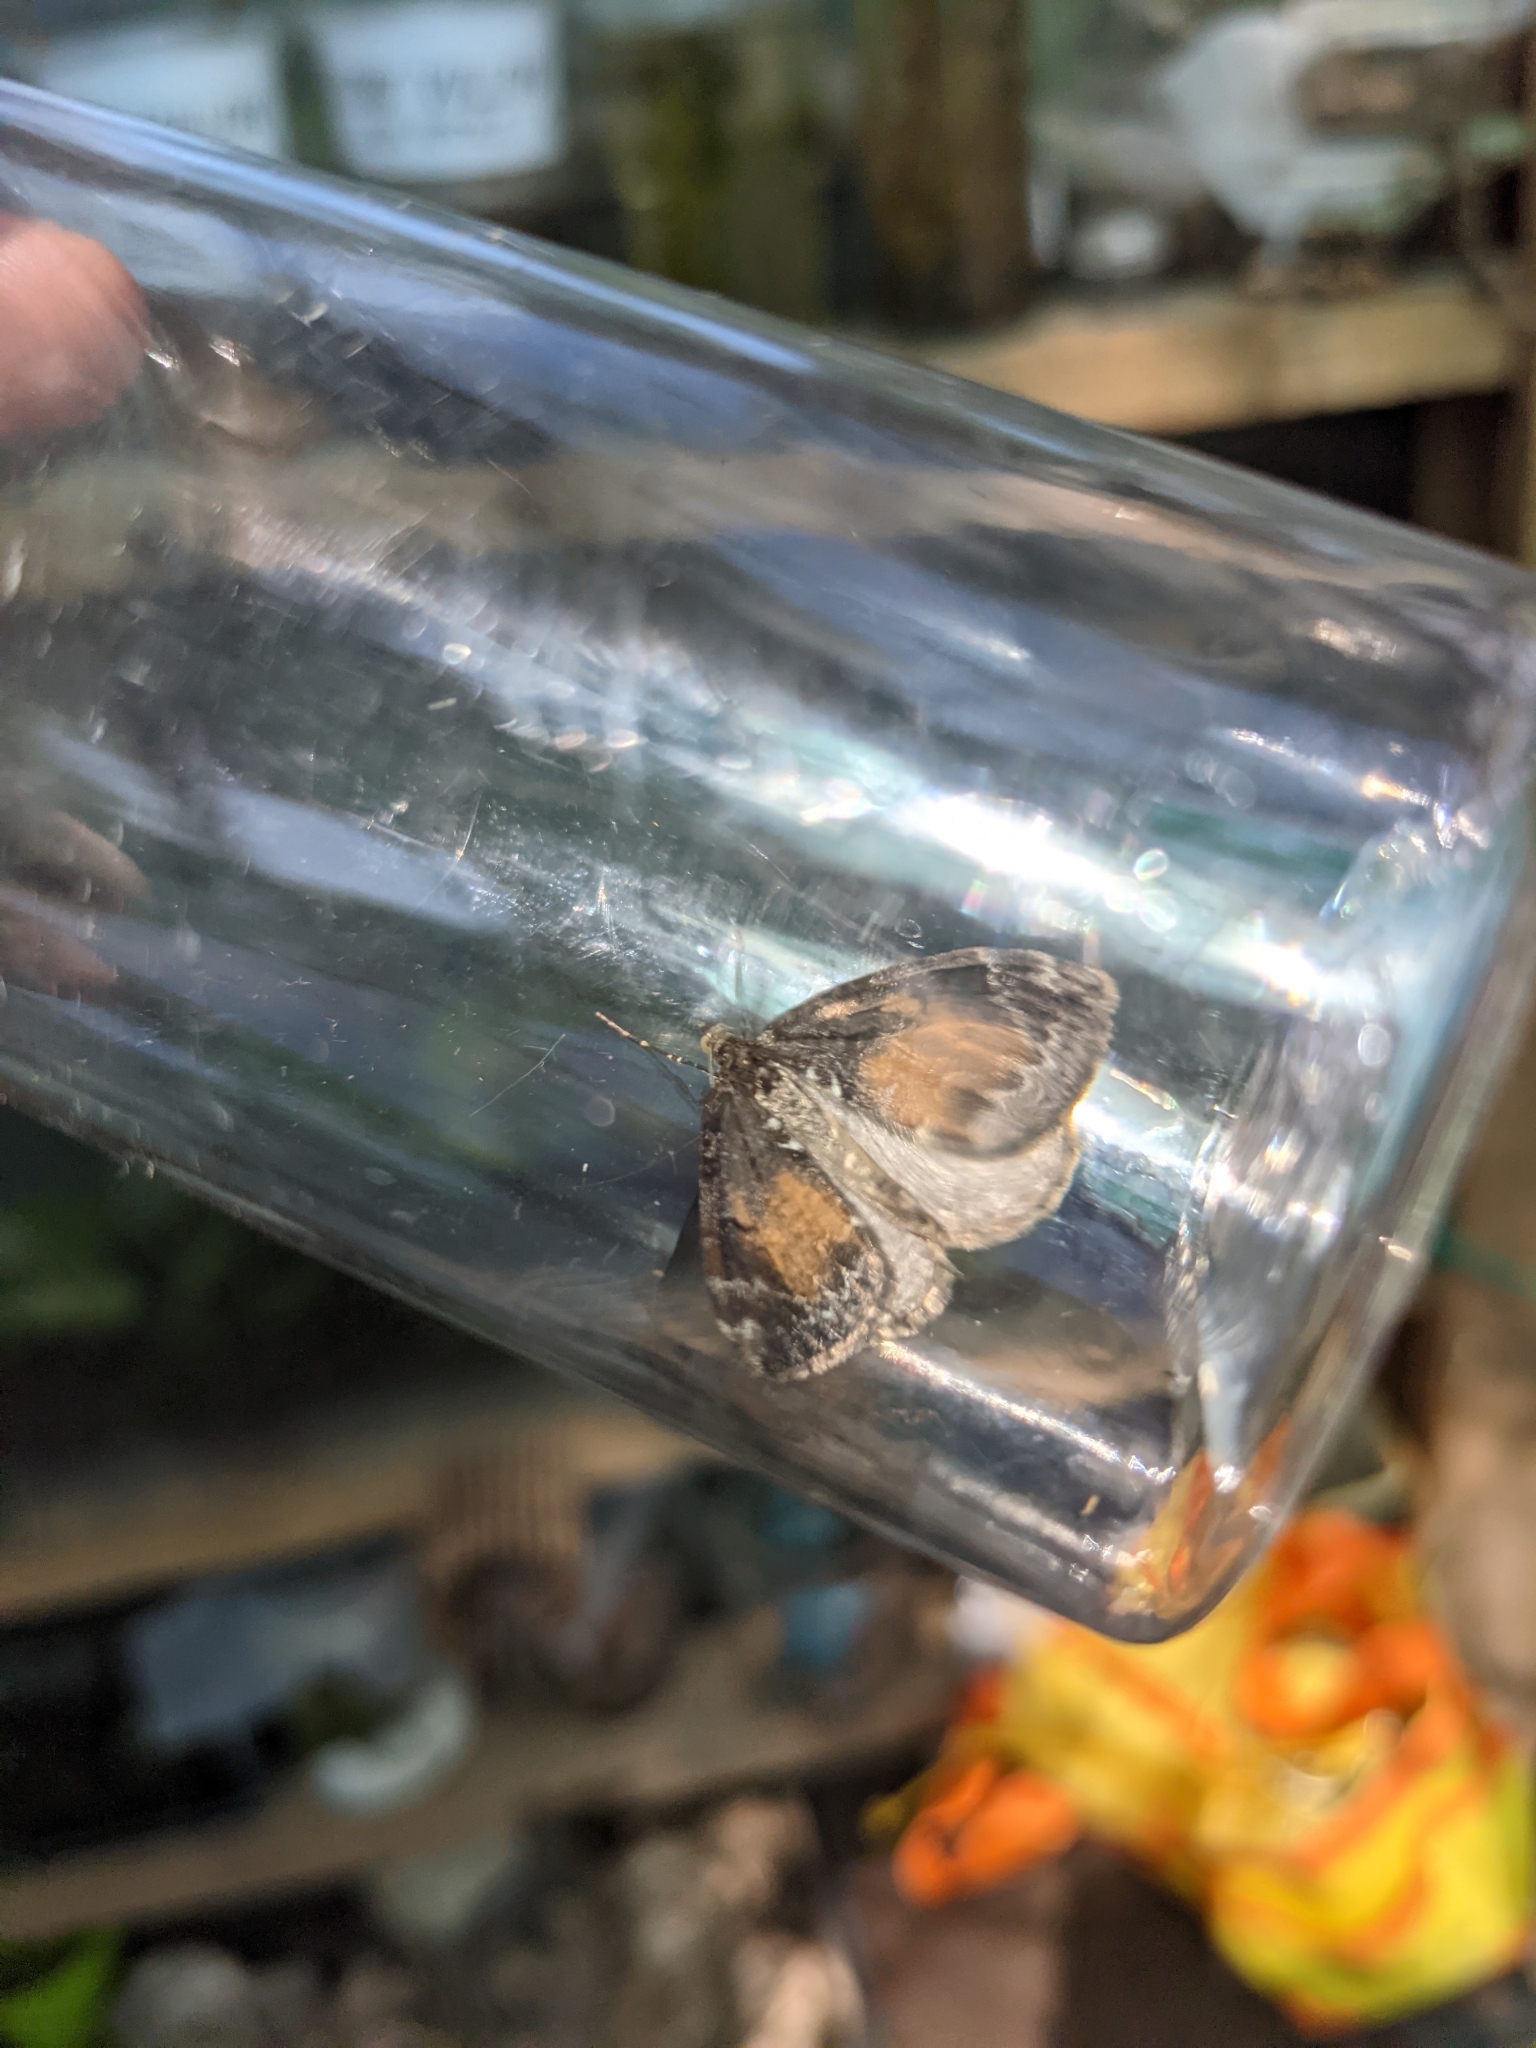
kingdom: Animalia
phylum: Arthropoda
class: Insecta
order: Lepidoptera
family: Geometridae
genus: Dysstroma
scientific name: Dysstroma truncata
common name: Common marbled carpet
